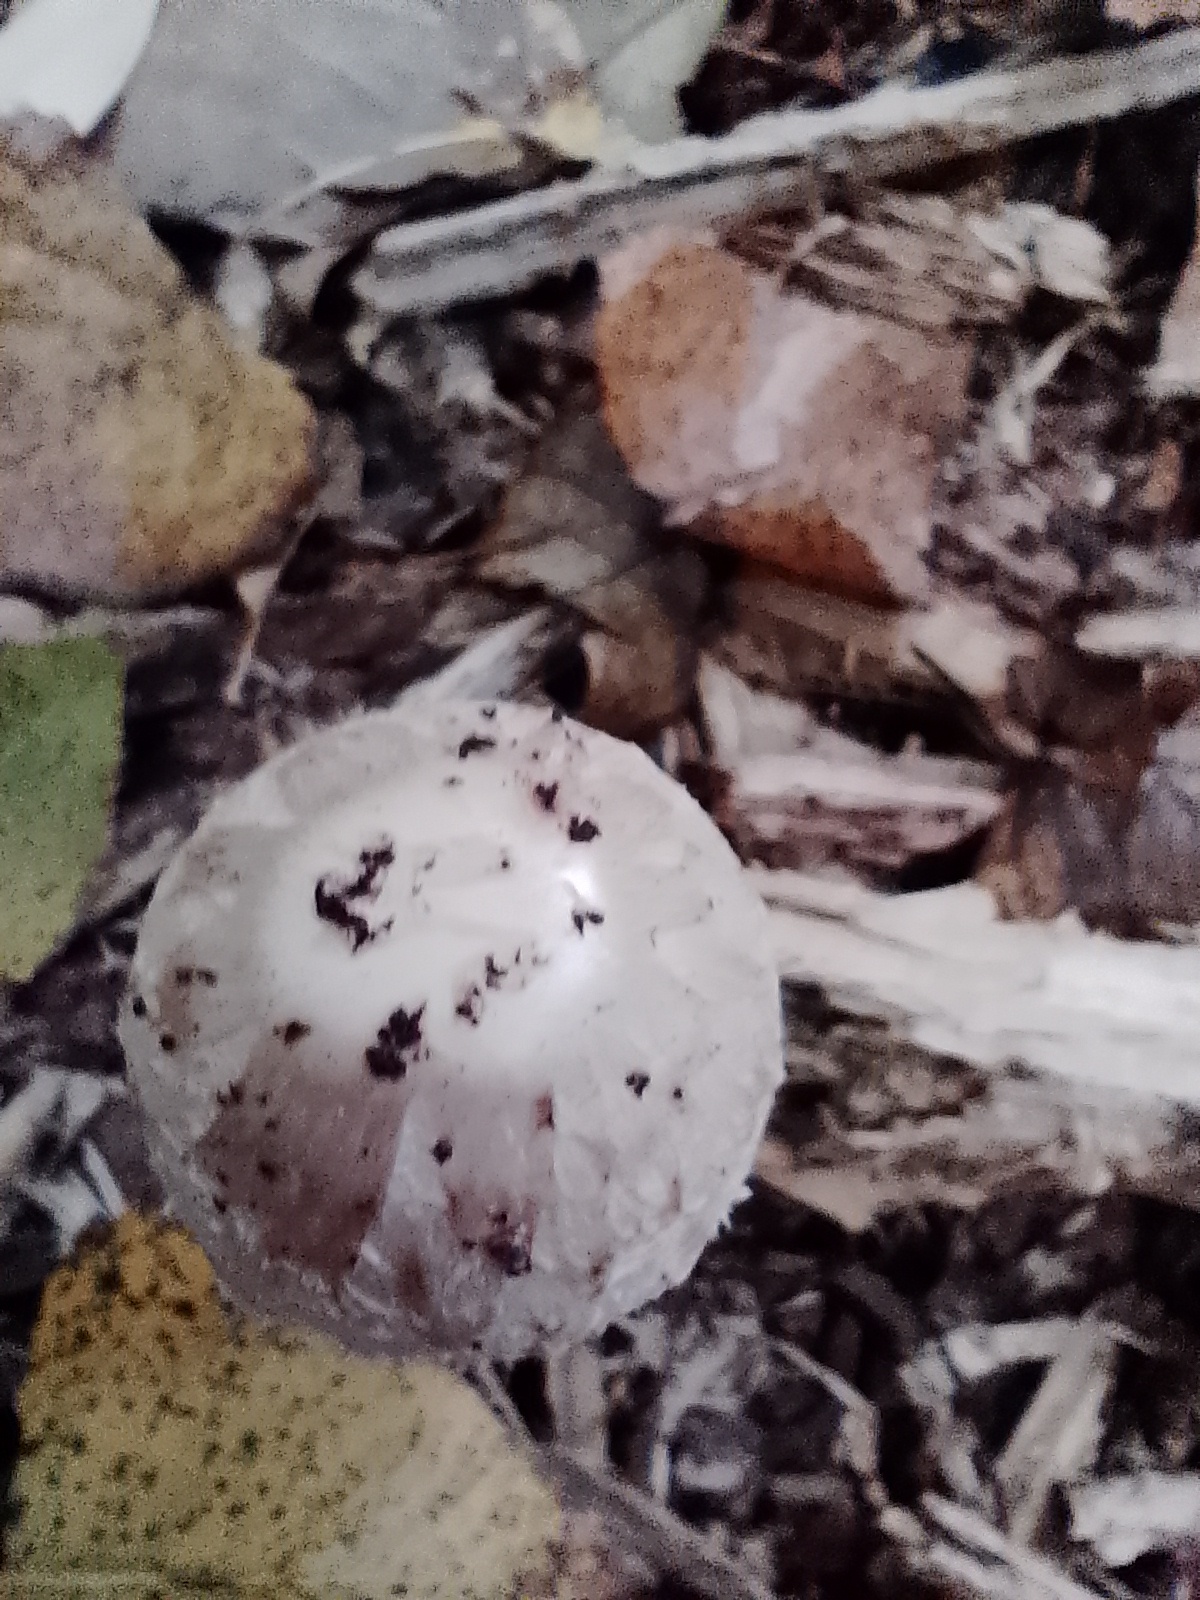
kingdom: Fungi
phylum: Basidiomycota
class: Agaricomycetes
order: Agaricales
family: Agaricaceae
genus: Coprinus
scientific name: Coprinus comatus
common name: Lawyer's wig
